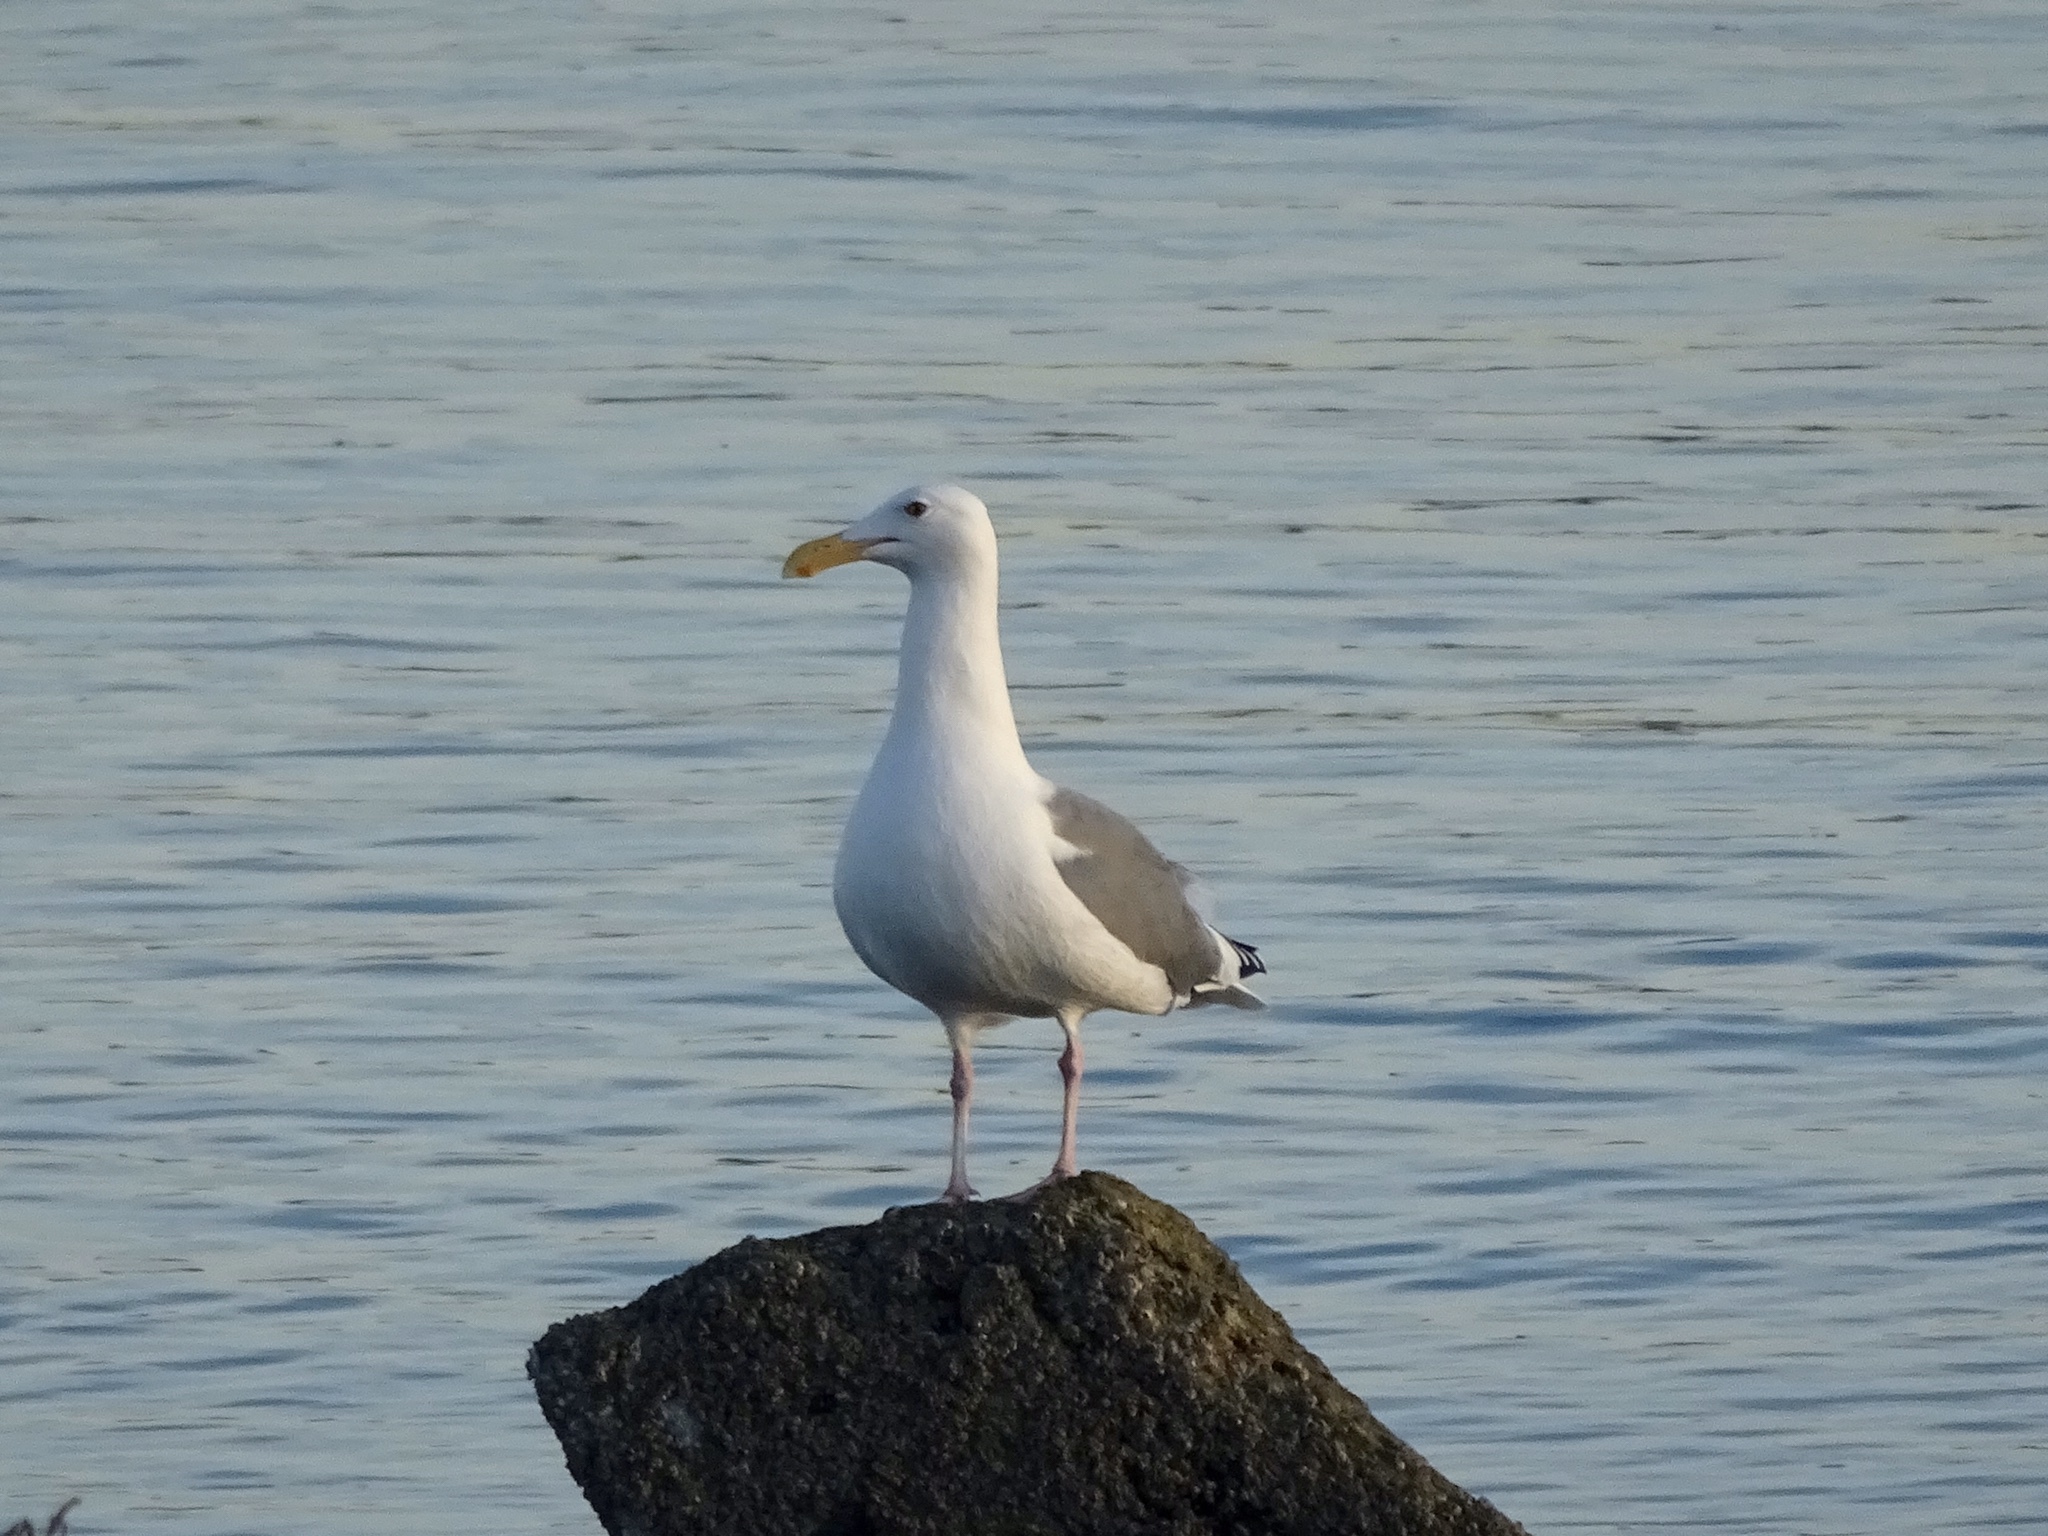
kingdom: Animalia
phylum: Chordata
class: Aves
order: Charadriiformes
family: Laridae
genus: Larus
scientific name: Larus occidentalis
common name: Western gull
